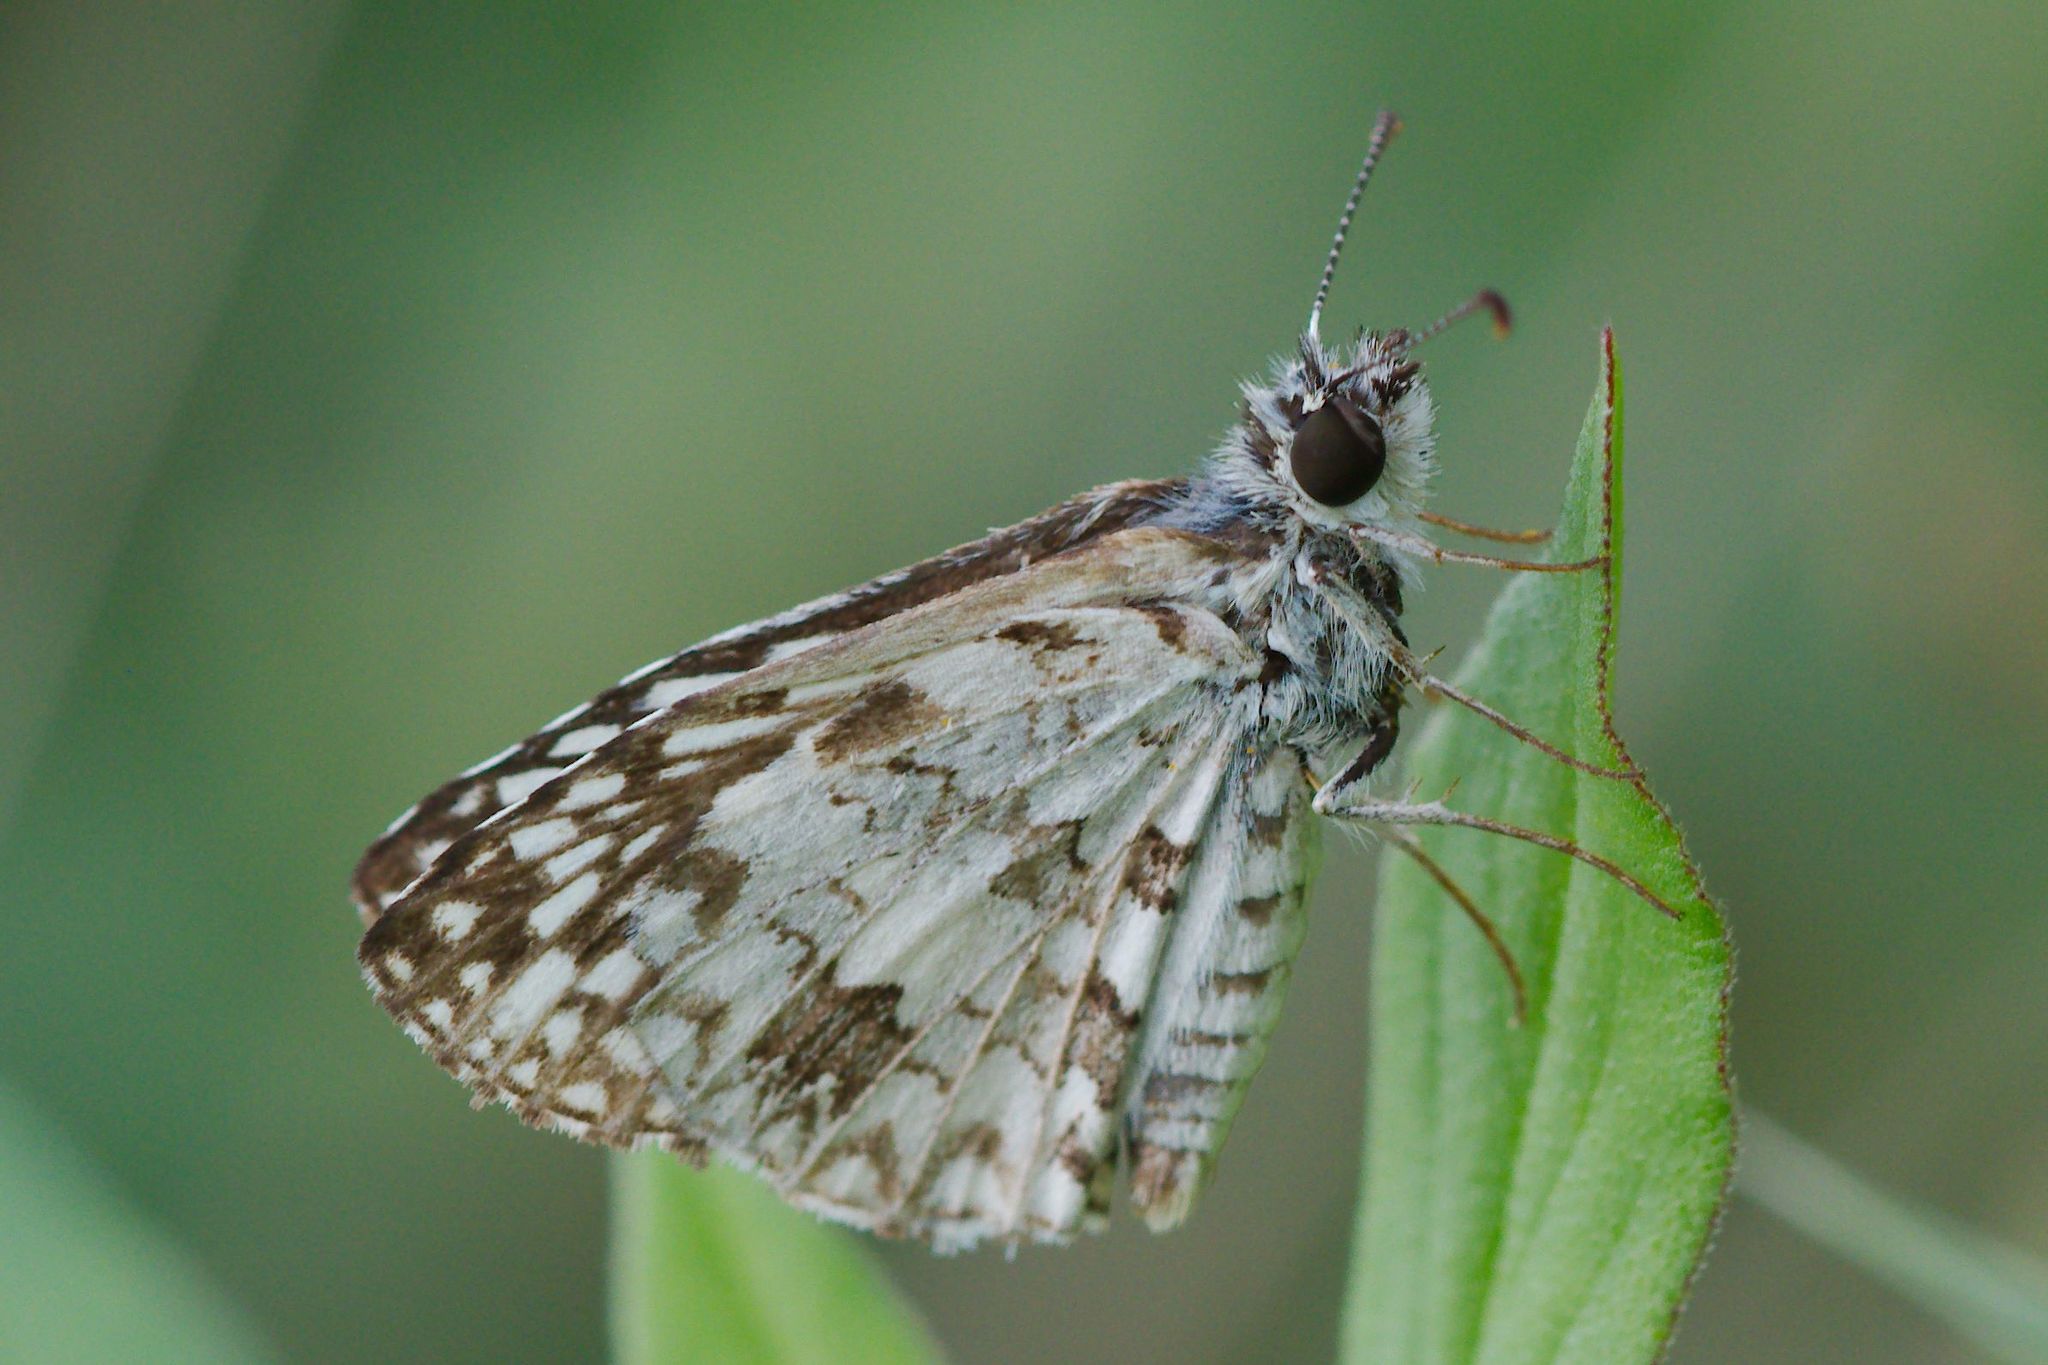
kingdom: Animalia
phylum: Arthropoda
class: Insecta
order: Lepidoptera
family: Hesperiidae
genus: Pyrgus
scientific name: Pyrgus oileus
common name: Tropical checkered-skipper
